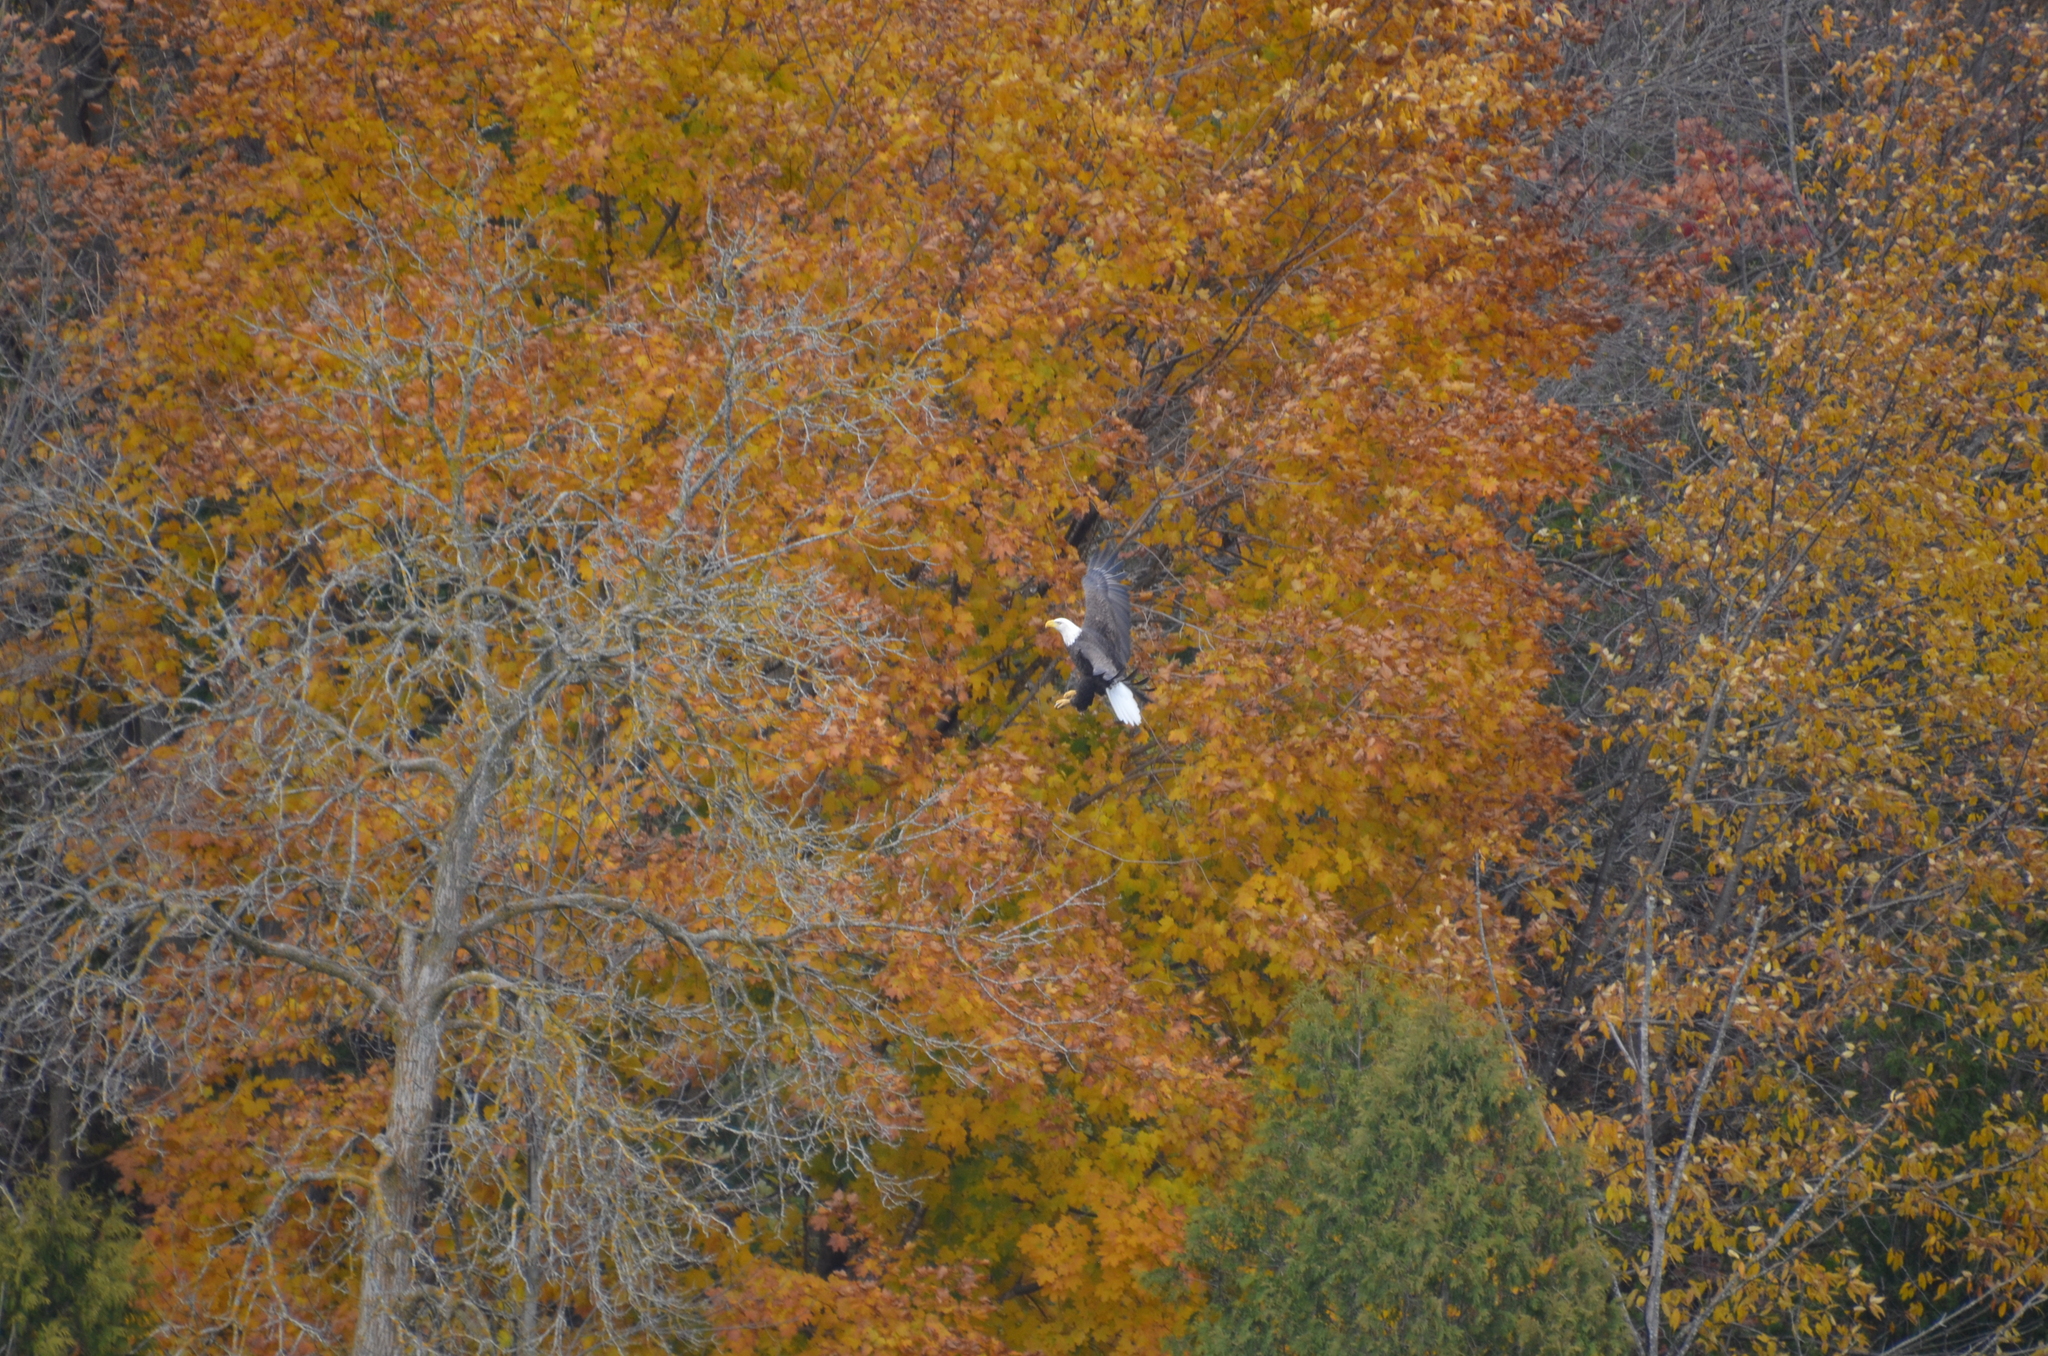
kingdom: Animalia
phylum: Chordata
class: Aves
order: Accipitriformes
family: Accipitridae
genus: Haliaeetus
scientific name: Haliaeetus leucocephalus
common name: Bald eagle
